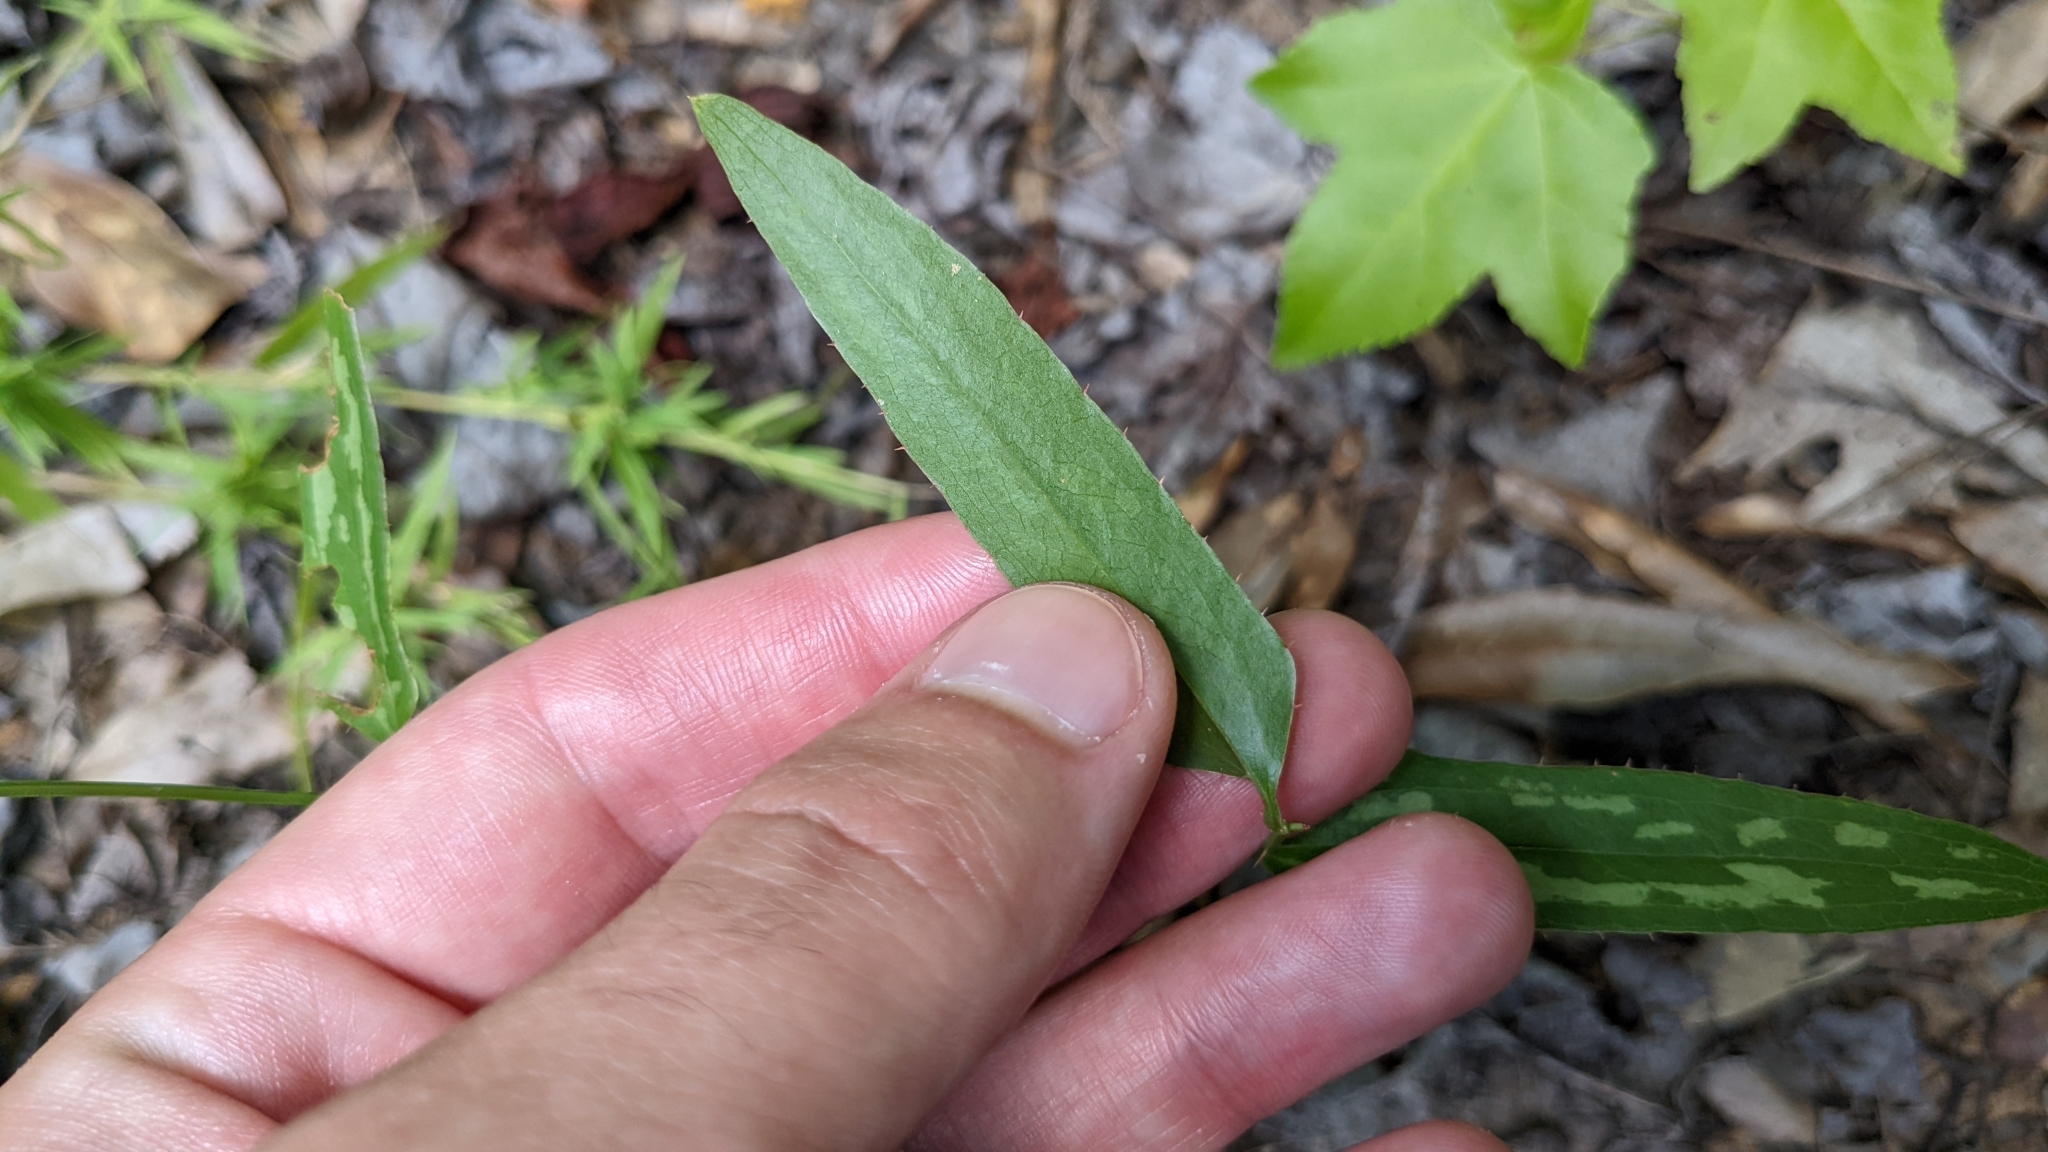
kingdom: Plantae
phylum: Tracheophyta
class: Liliopsida
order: Liliales
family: Smilacaceae
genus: Smilax
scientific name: Smilax bona-nox
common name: Catbrier
